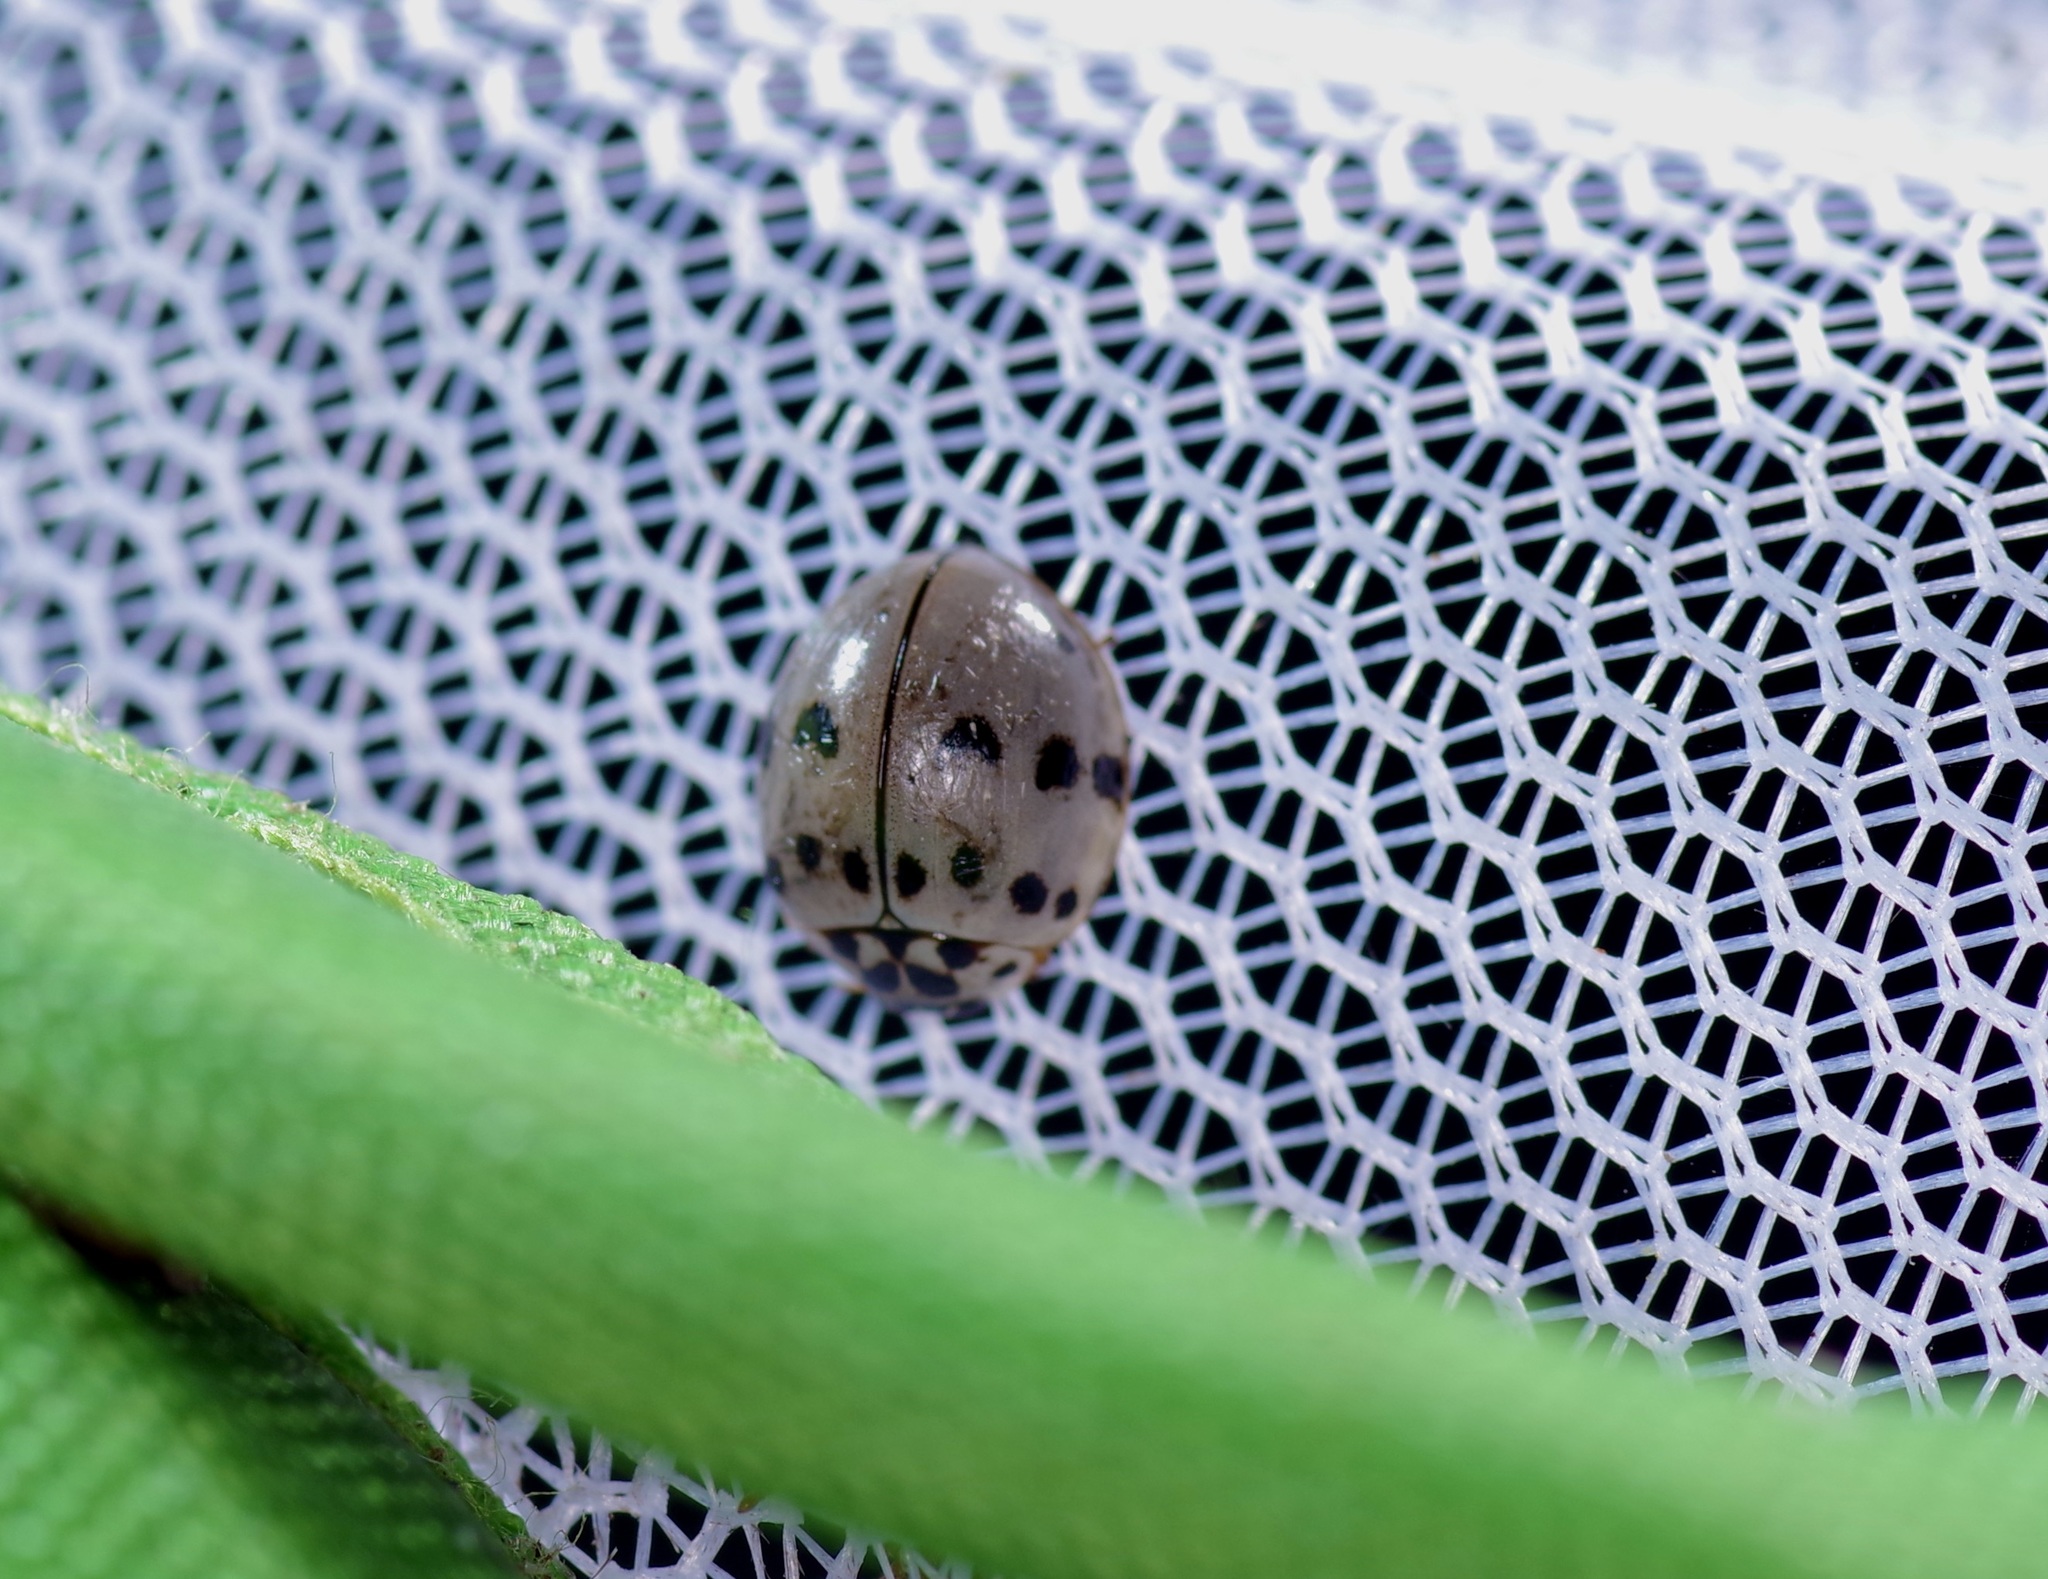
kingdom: Animalia
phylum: Arthropoda
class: Insecta
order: Coleoptera
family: Coccinellidae
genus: Olla
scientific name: Olla v-nigrum
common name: Ashy gray lady beetle
